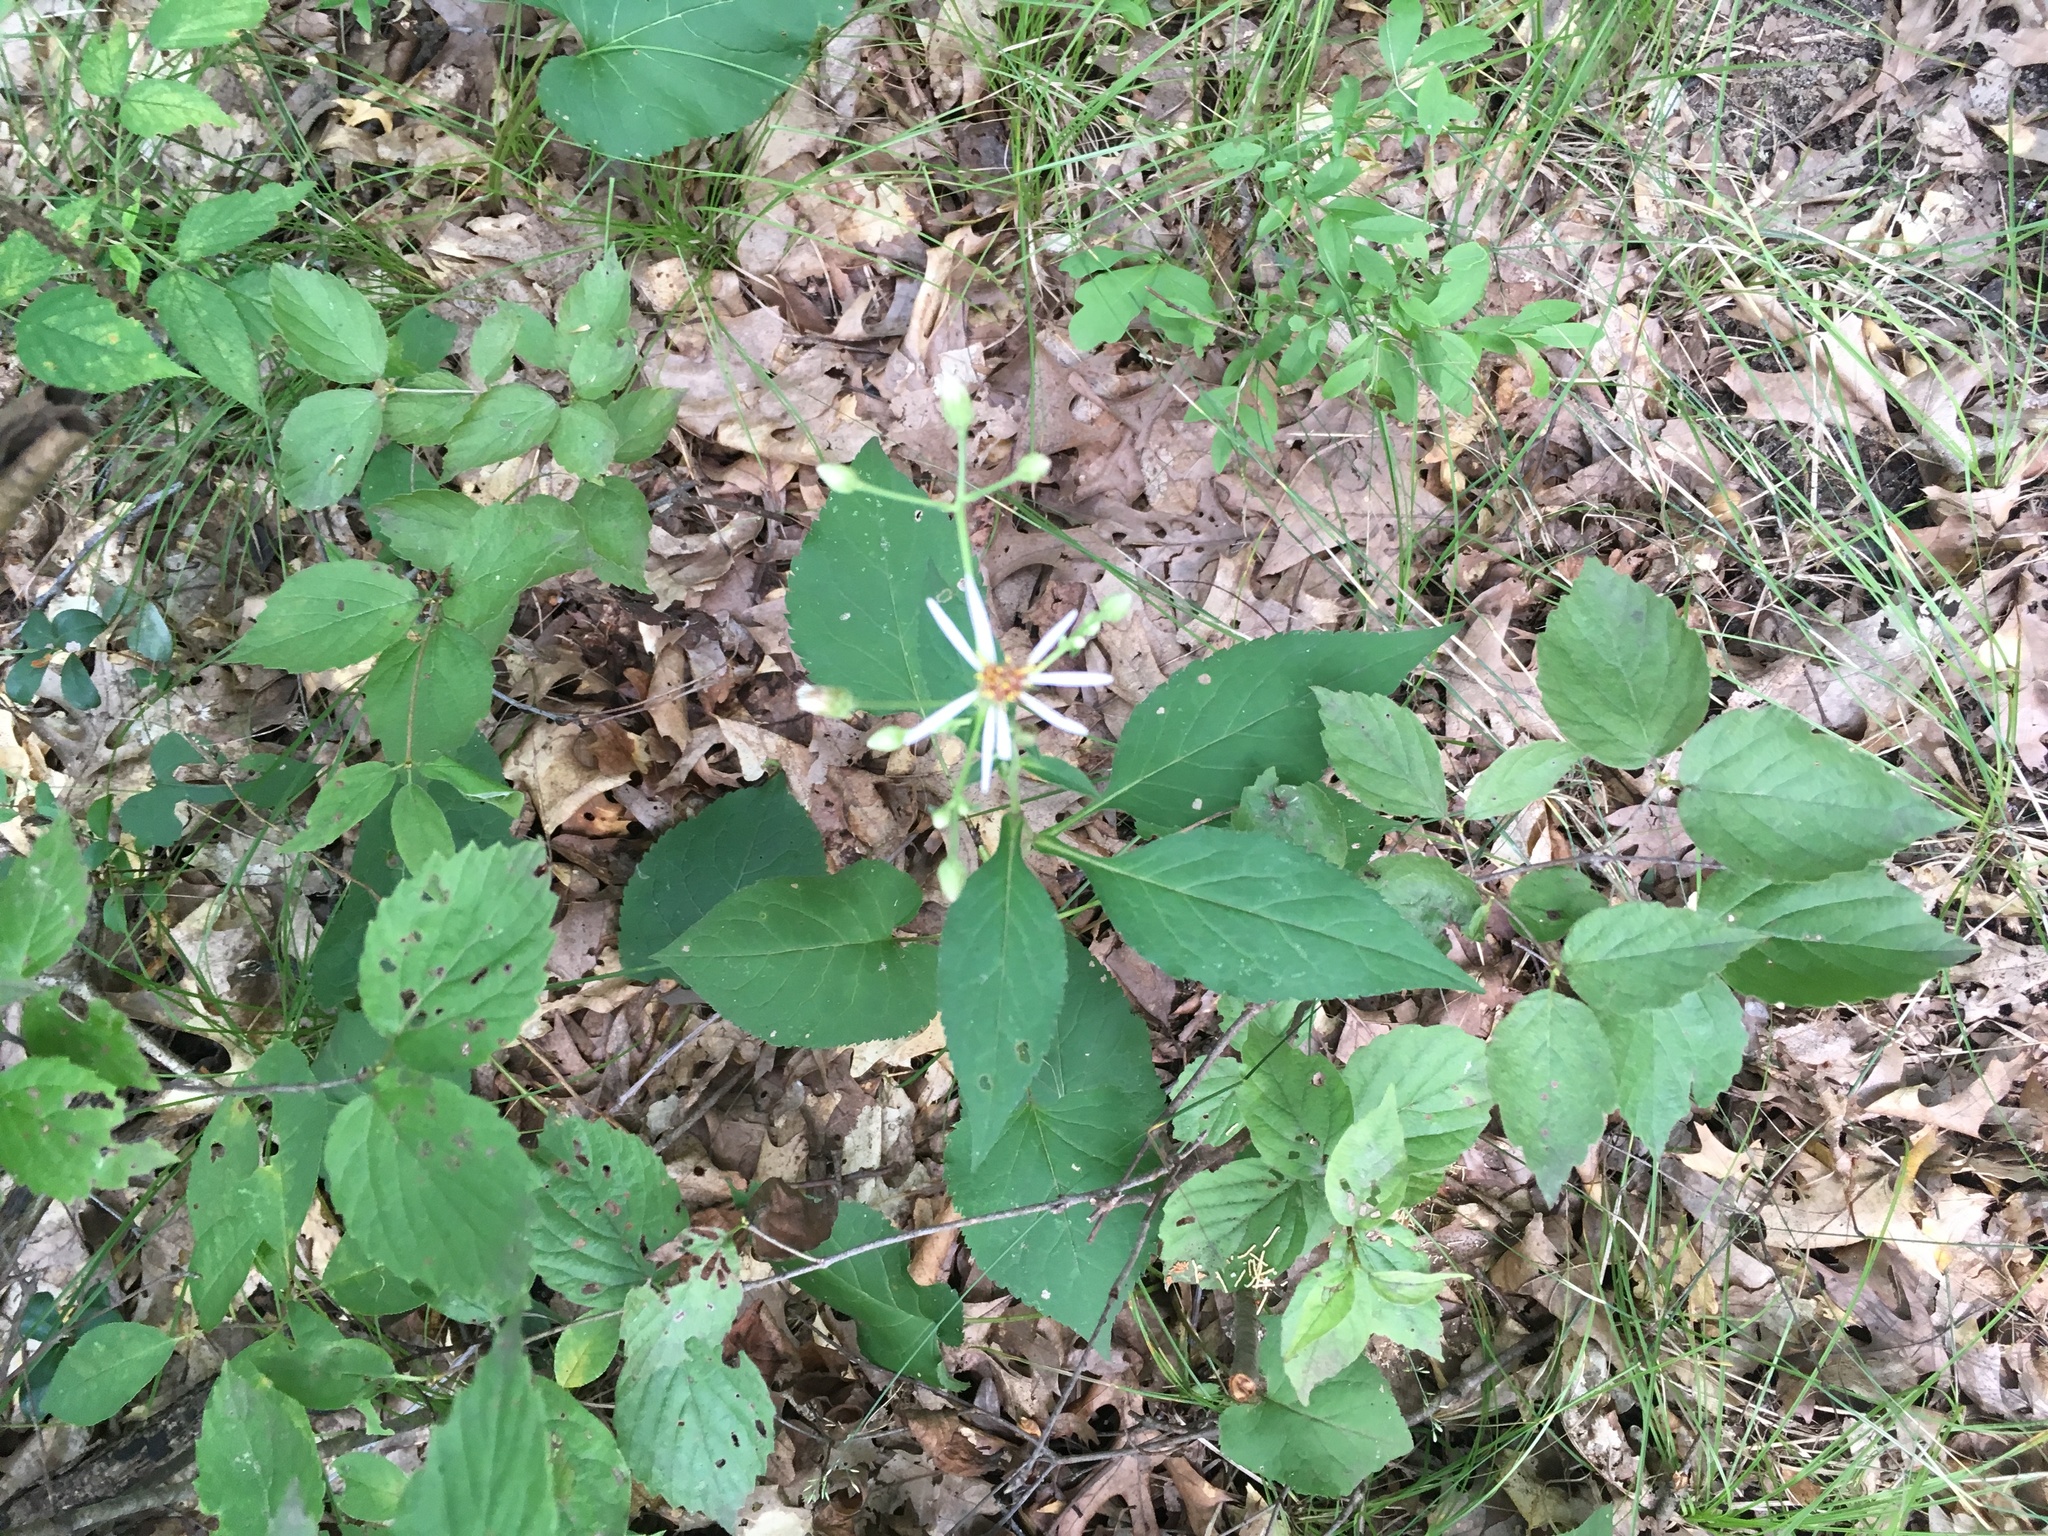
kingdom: Plantae
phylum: Tracheophyta
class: Magnoliopsida
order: Asterales
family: Asteraceae
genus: Eurybia
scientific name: Eurybia macrophylla
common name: Big-leaved aster
